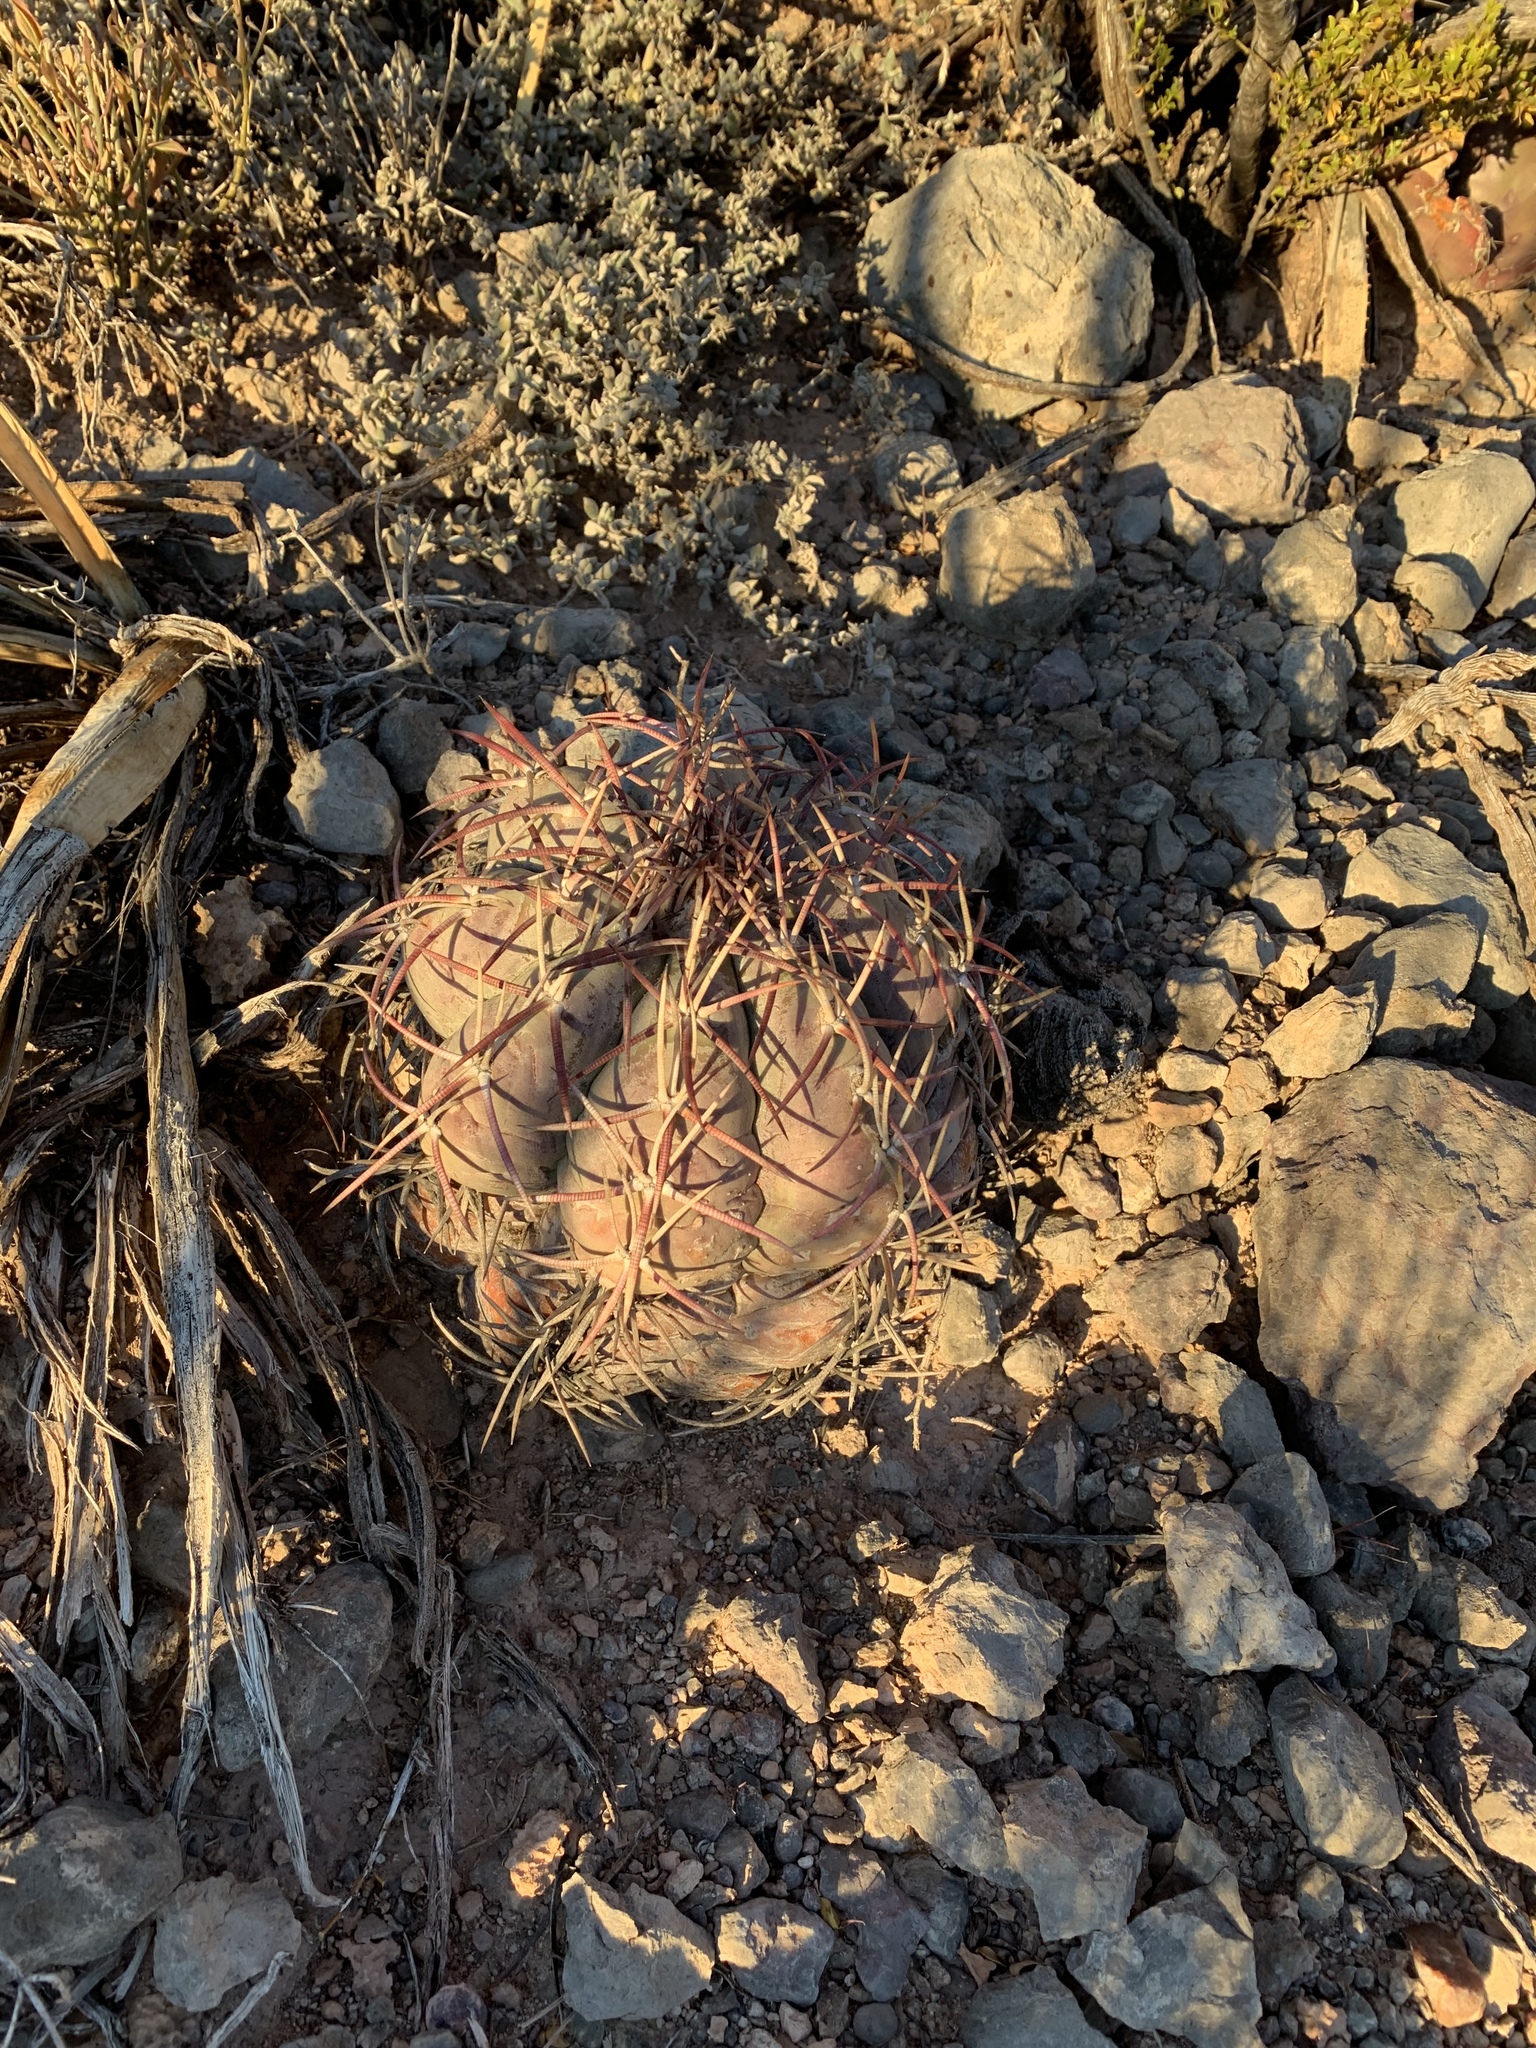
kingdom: Plantae
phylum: Tracheophyta
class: Magnoliopsida
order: Caryophyllales
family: Cactaceae
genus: Echinocactus
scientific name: Echinocactus horizonthalonius
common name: Devilshead
